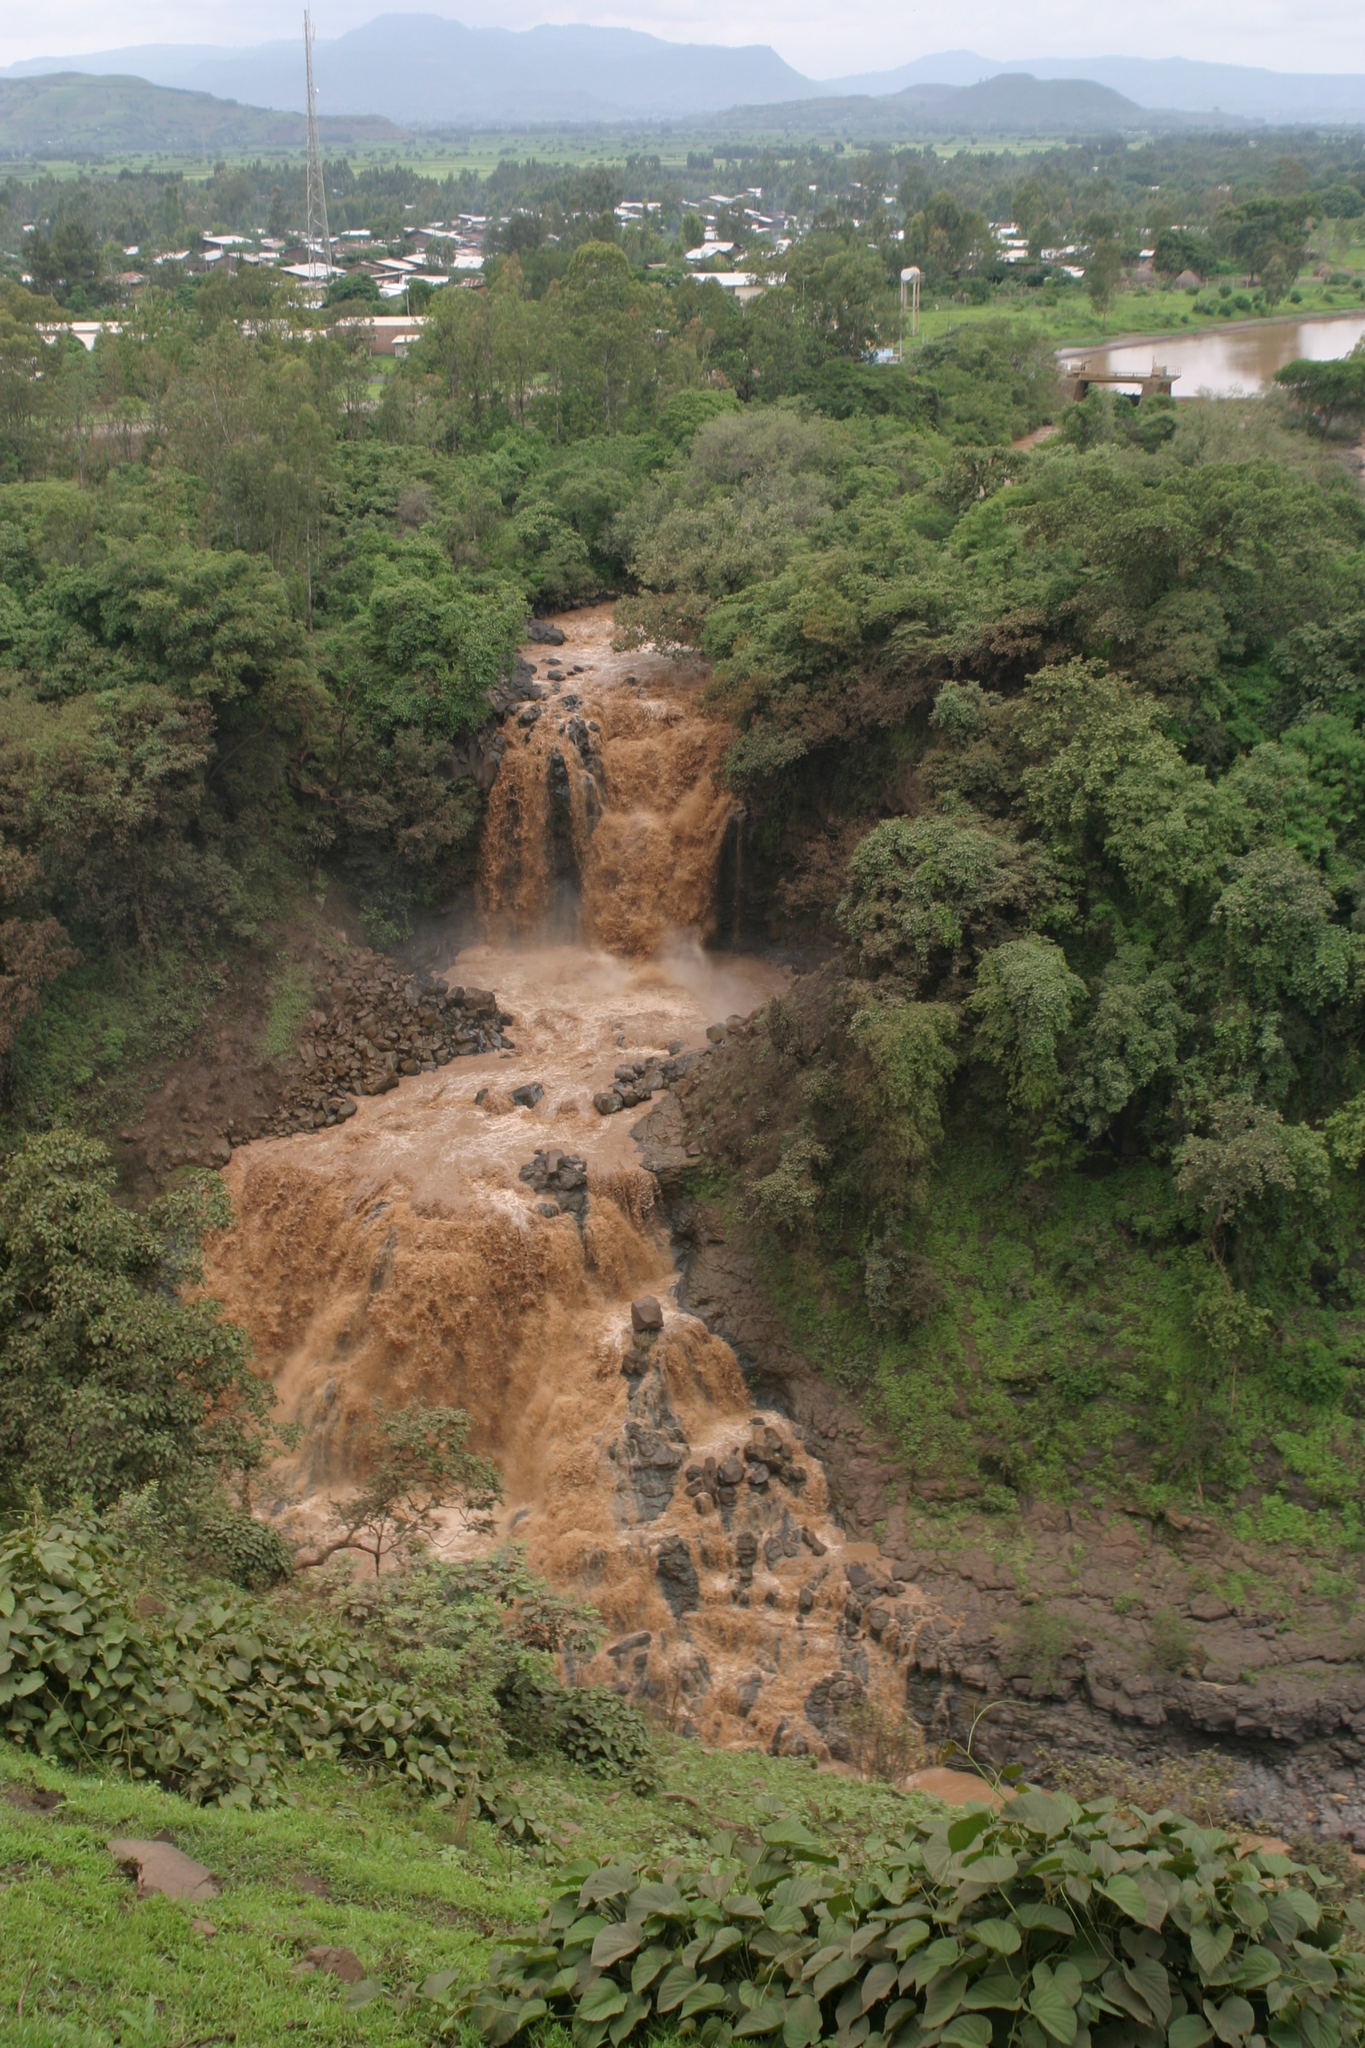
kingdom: Animalia
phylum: Arthropoda
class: Insecta
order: Odonata
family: Libellulidae
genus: Zygonyx
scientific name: Zygonyx natalensis
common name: Blue cascader
